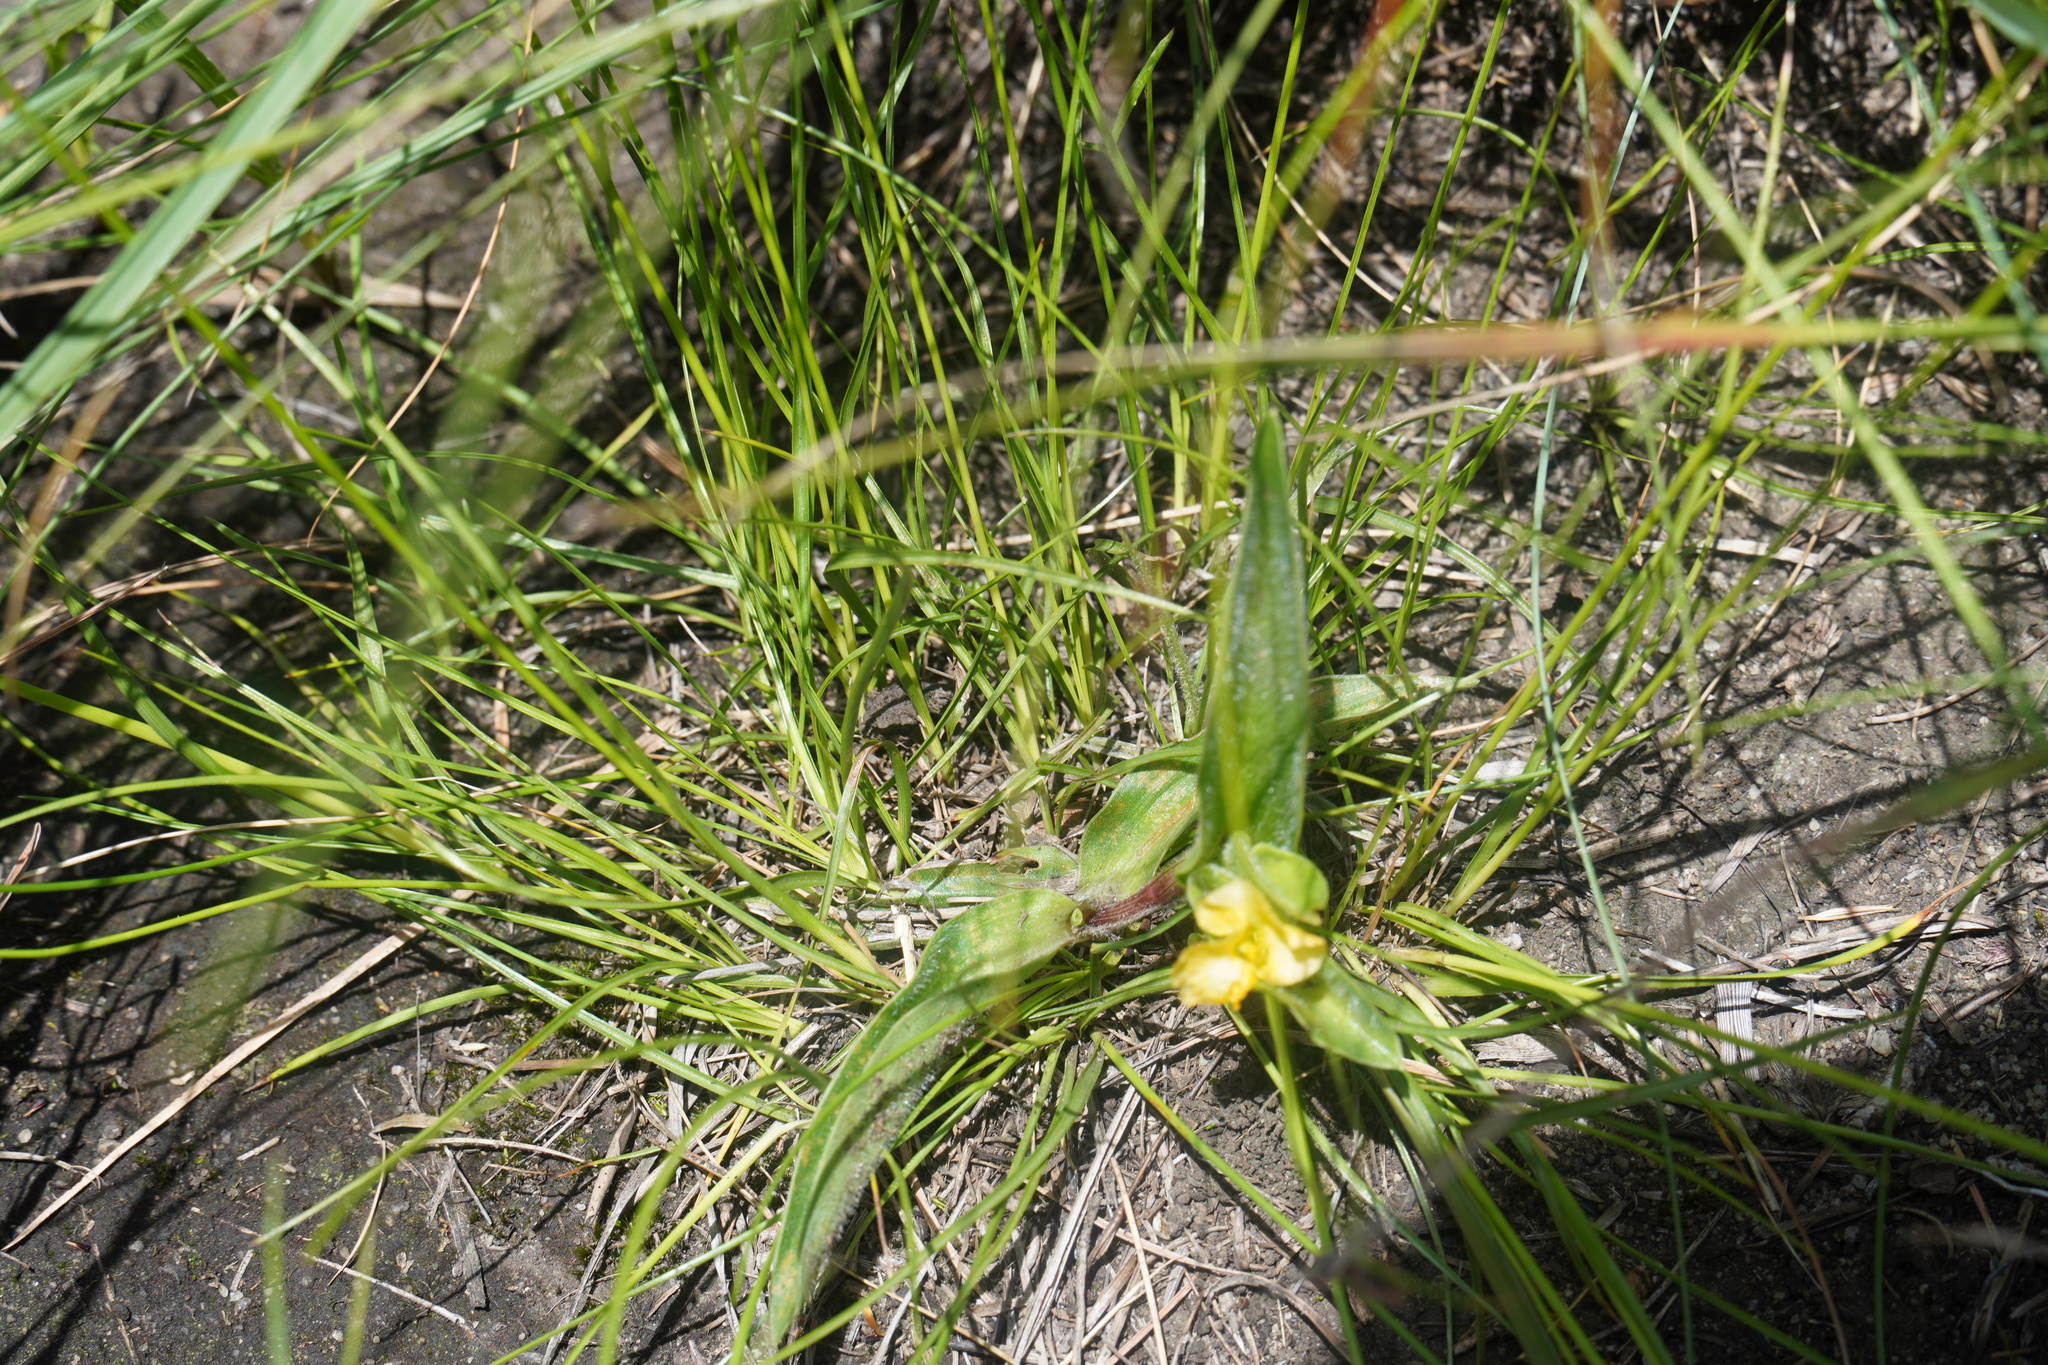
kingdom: Plantae
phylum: Tracheophyta
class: Liliopsida
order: Commelinales
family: Commelinaceae
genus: Commelina
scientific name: Commelina africana
